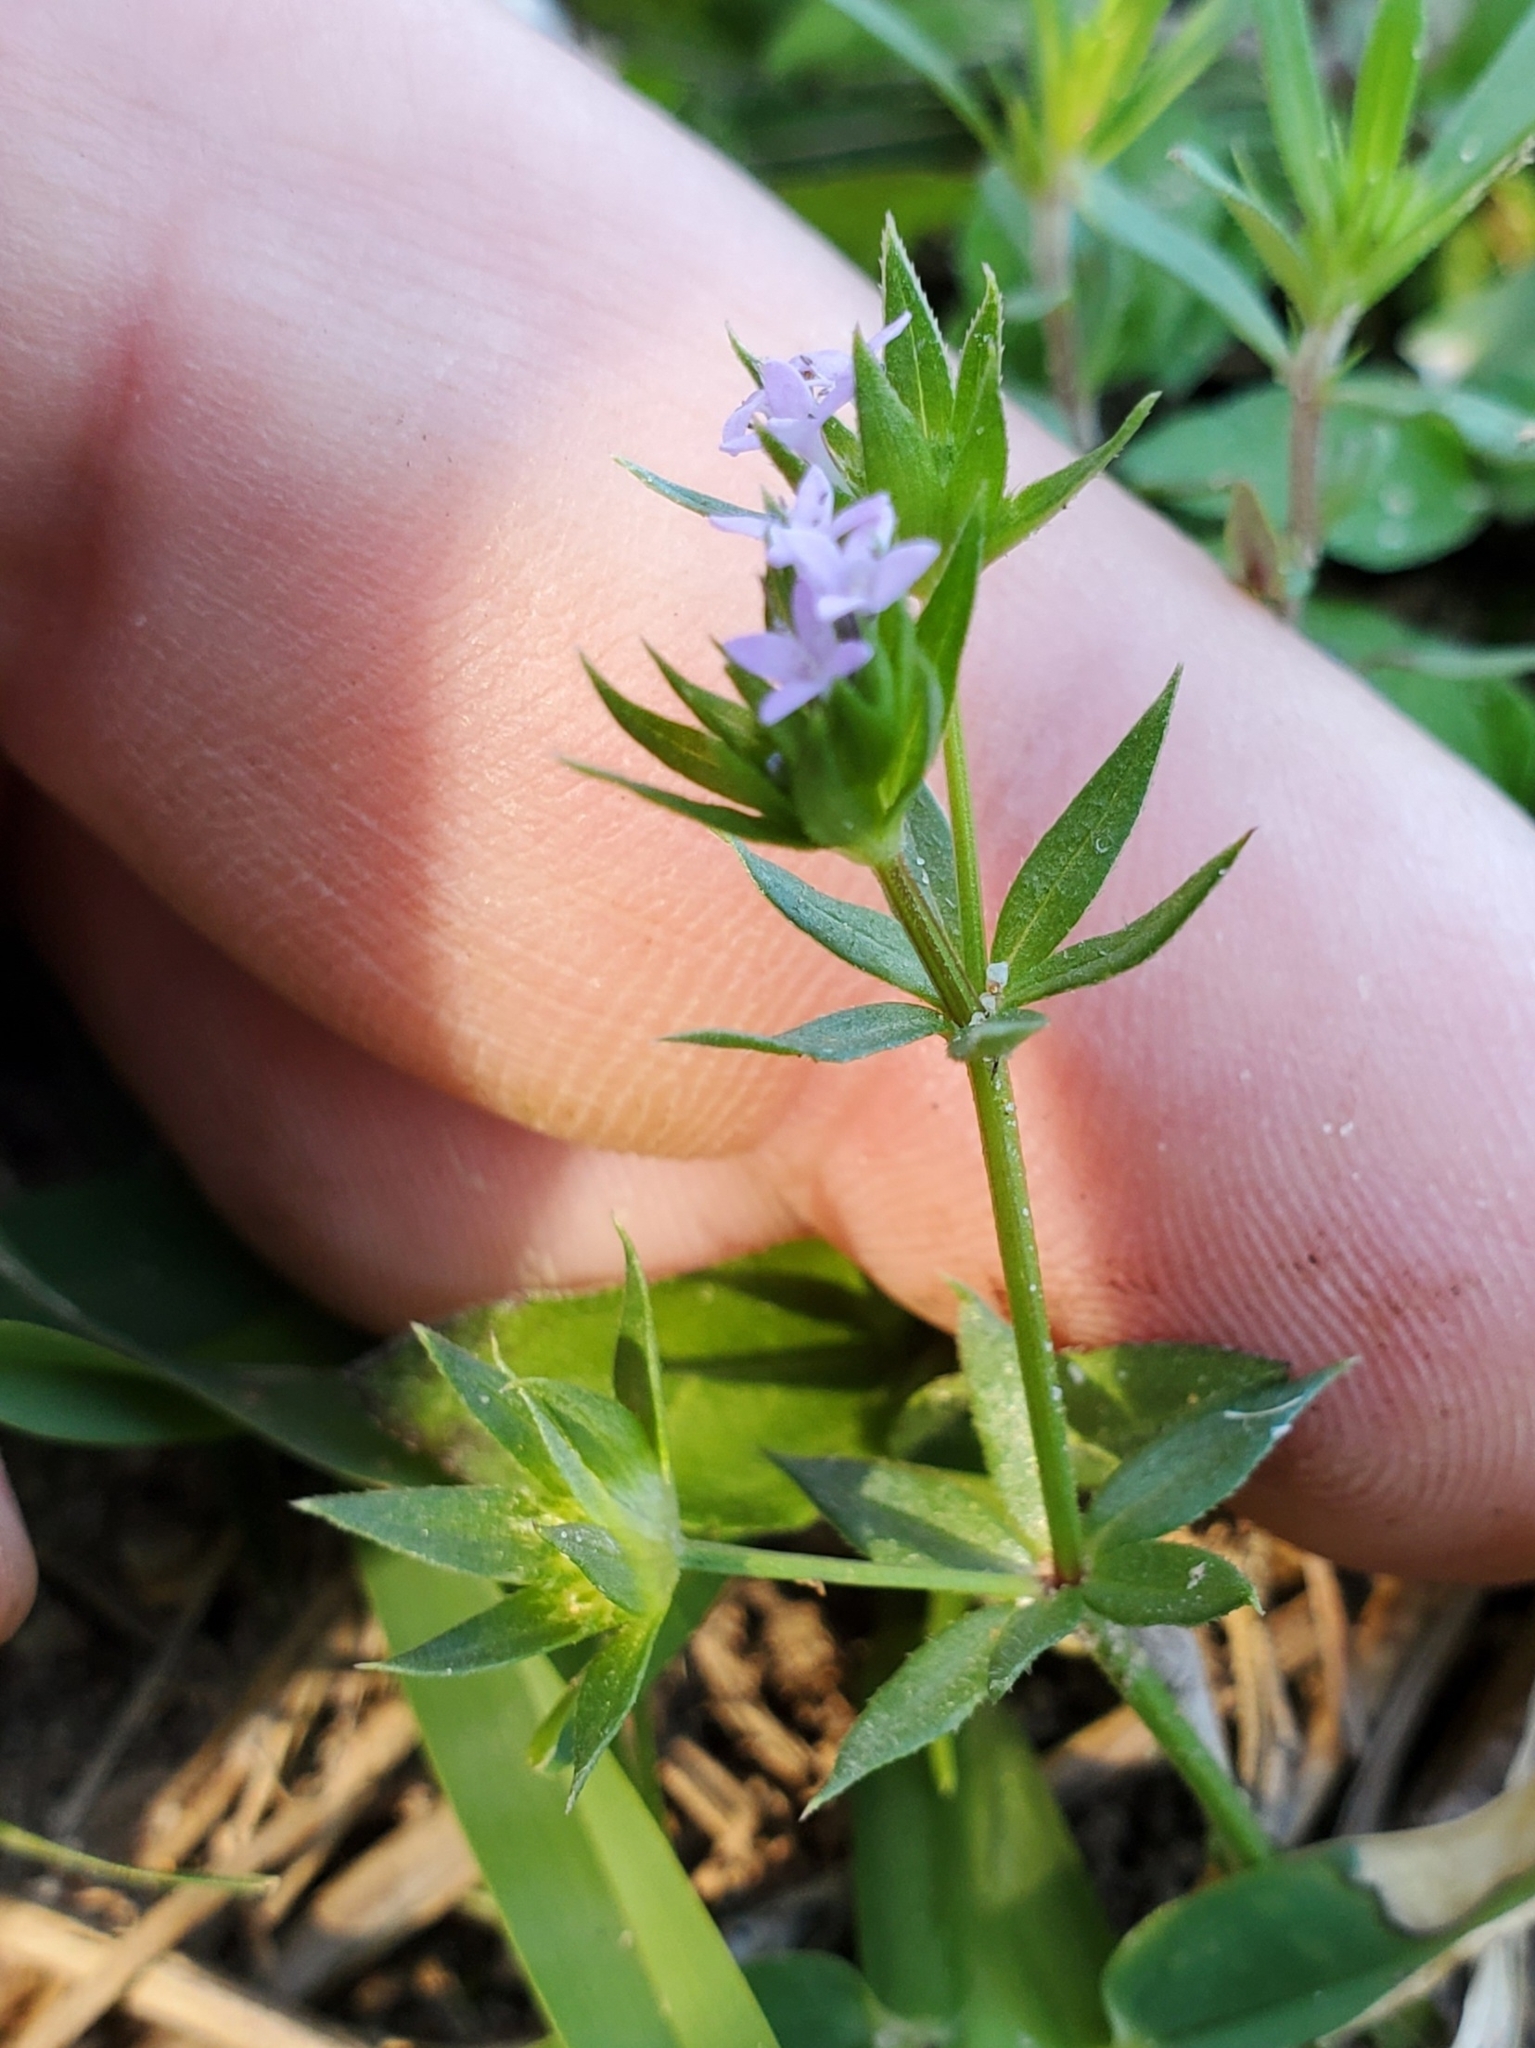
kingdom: Plantae
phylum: Tracheophyta
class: Magnoliopsida
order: Gentianales
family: Rubiaceae
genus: Sherardia
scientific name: Sherardia arvensis
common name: Field madder
